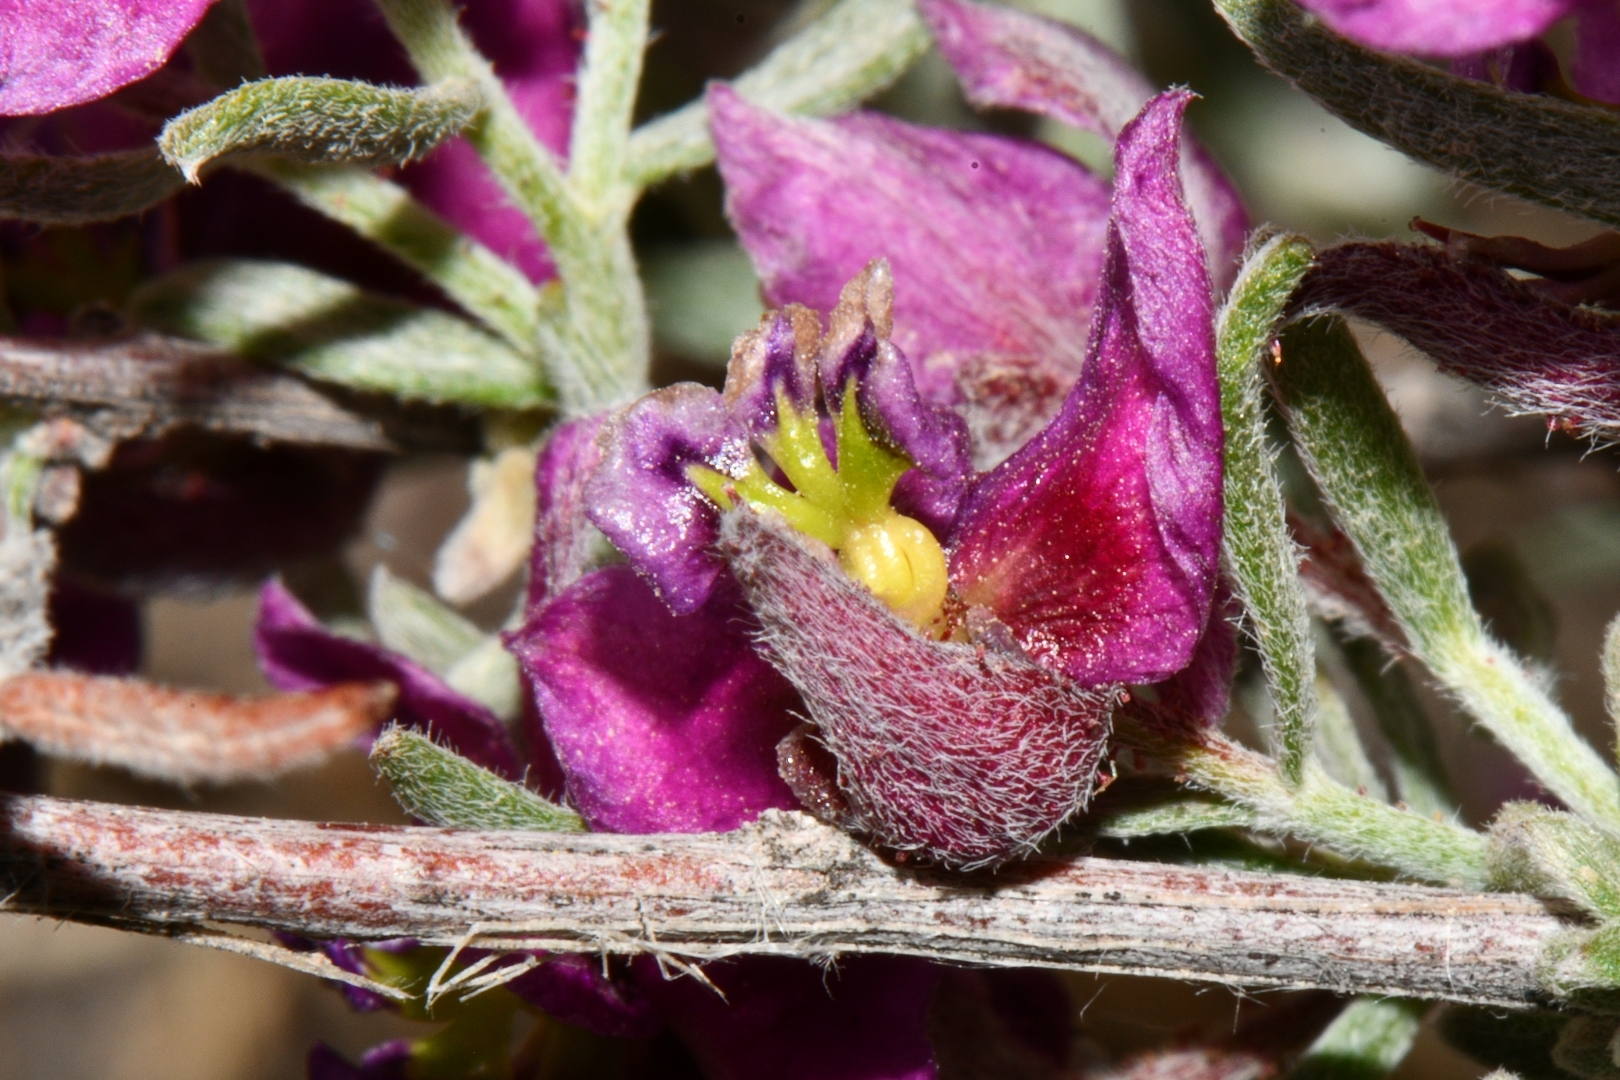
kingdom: Plantae
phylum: Tracheophyta
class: Magnoliopsida
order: Zygophyllales
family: Krameriaceae
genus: Krameria
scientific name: Krameria erecta
